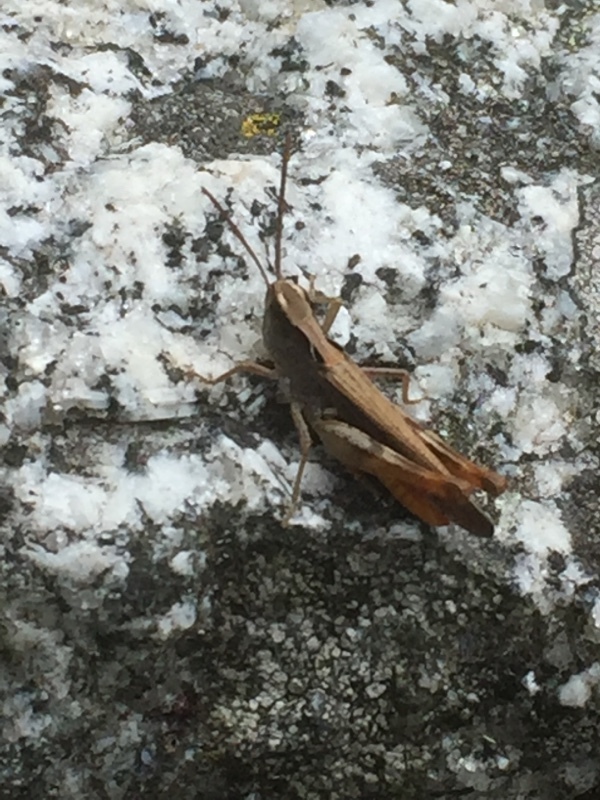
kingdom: Animalia
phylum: Arthropoda
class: Insecta
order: Orthoptera
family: Acrididae
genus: Chorthippus
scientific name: Chorthippus vagans
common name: Heath grasshopper
